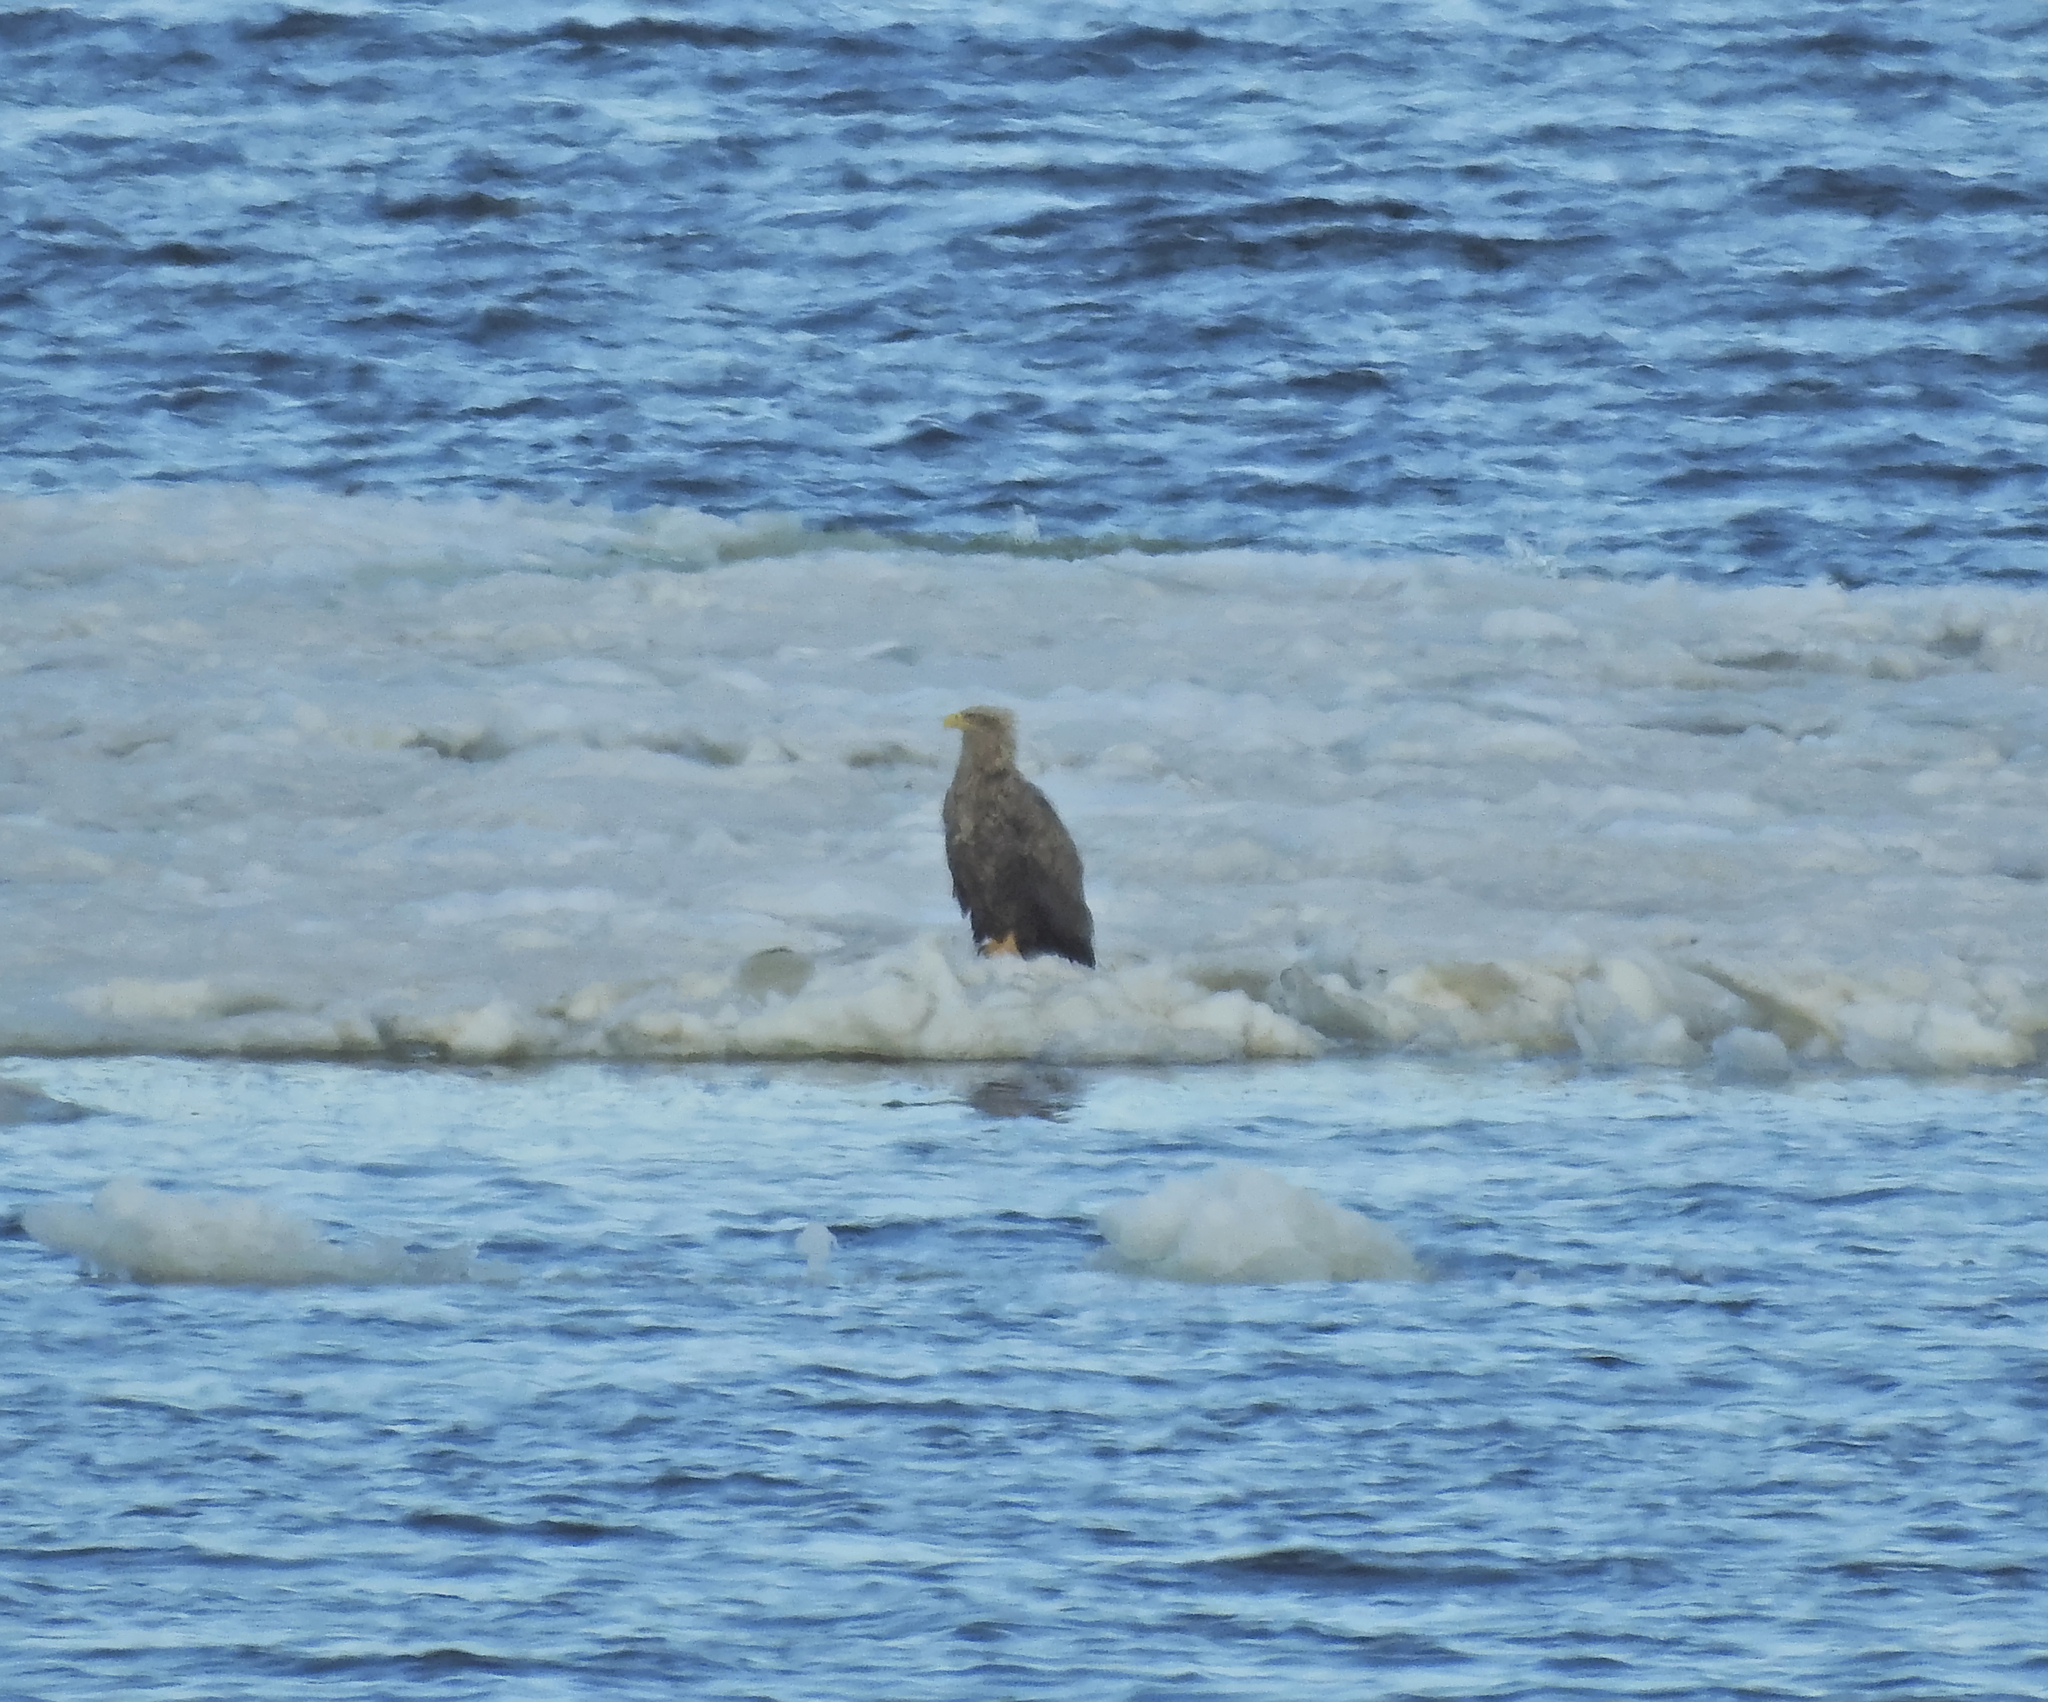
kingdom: Animalia
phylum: Chordata
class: Aves
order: Accipitriformes
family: Accipitridae
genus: Haliaeetus
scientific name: Haliaeetus albicilla
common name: White-tailed eagle
